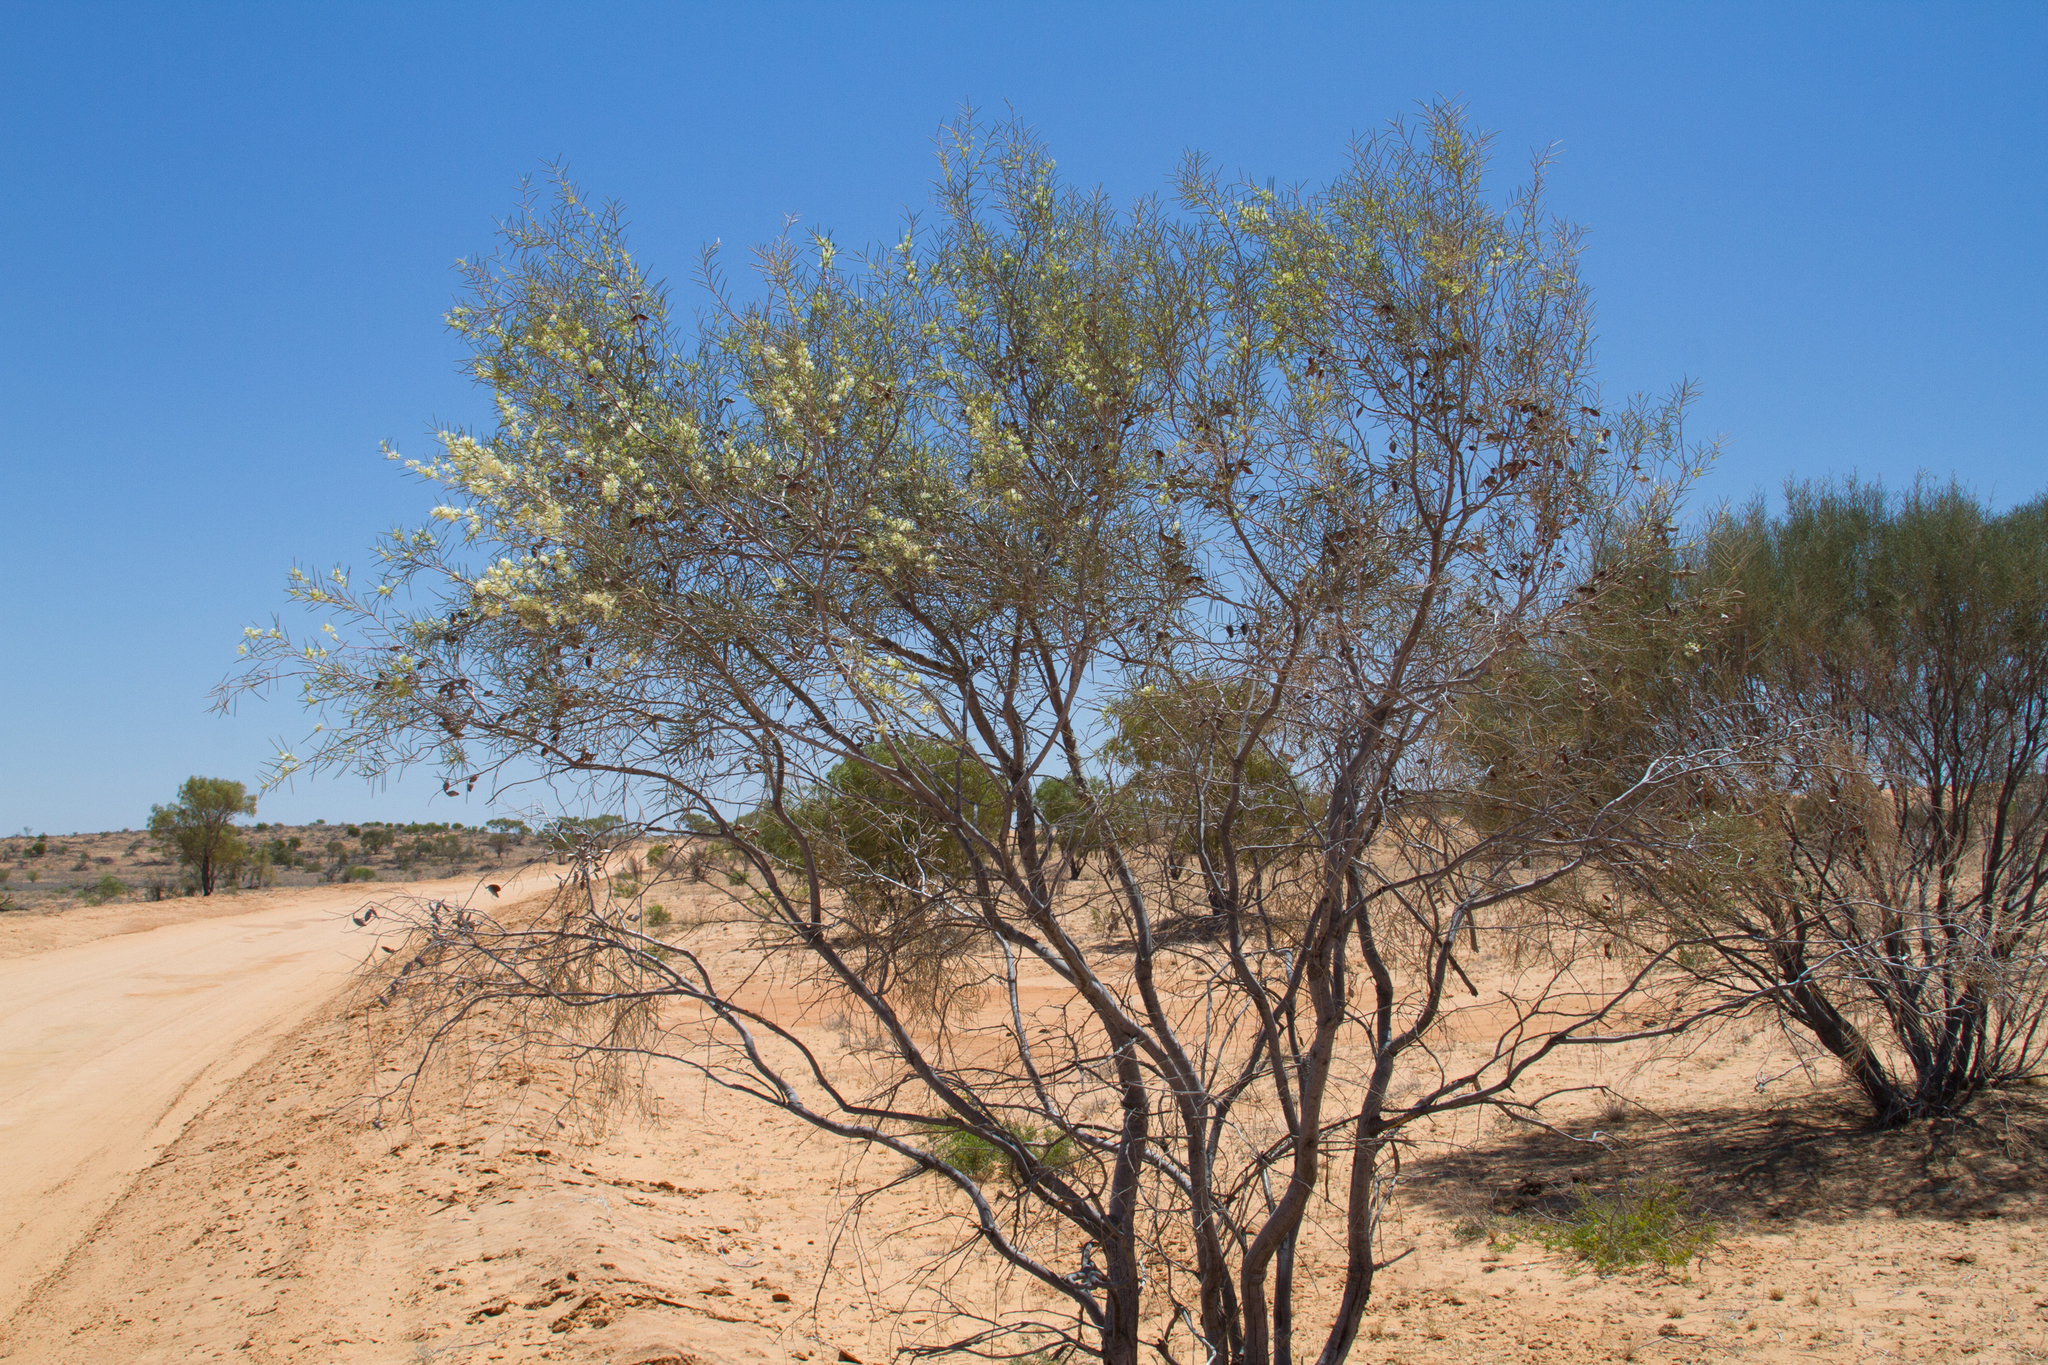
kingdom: Plantae
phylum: Tracheophyta
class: Magnoliopsida
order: Proteales
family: Proteaceae
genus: Hakea
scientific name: Hakea leucoptera
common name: Pinbush
